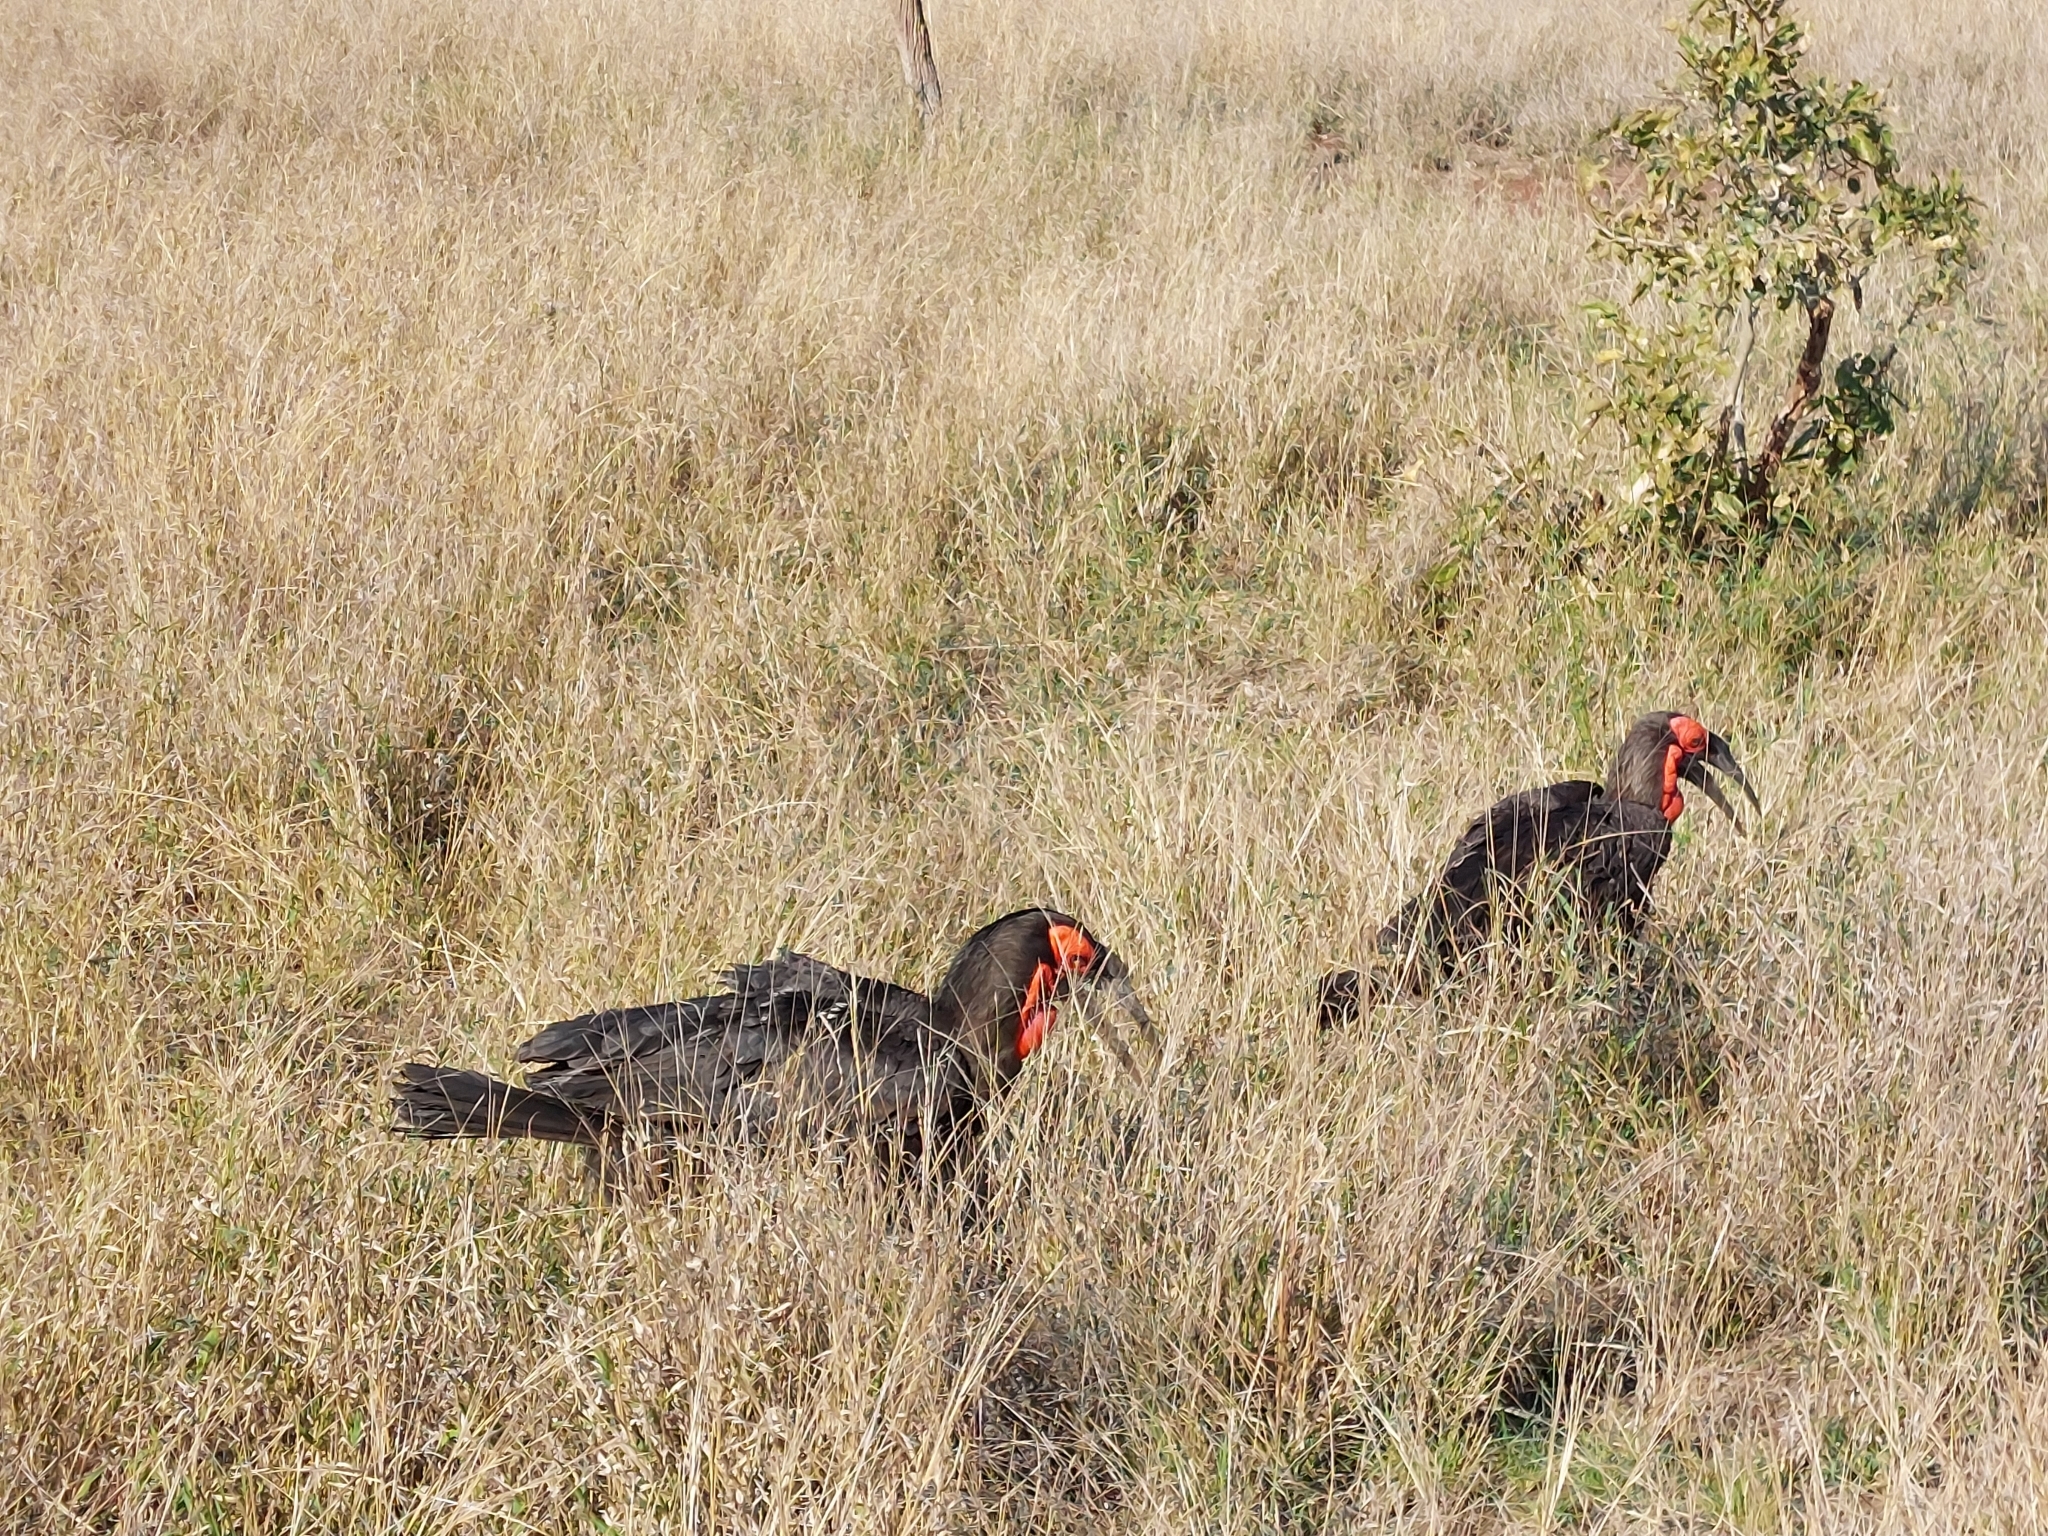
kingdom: Animalia
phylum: Chordata
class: Aves
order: Bucerotiformes
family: Bucorvidae
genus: Bucorvus
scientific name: Bucorvus leadbeateri
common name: Southern ground-hornbill
